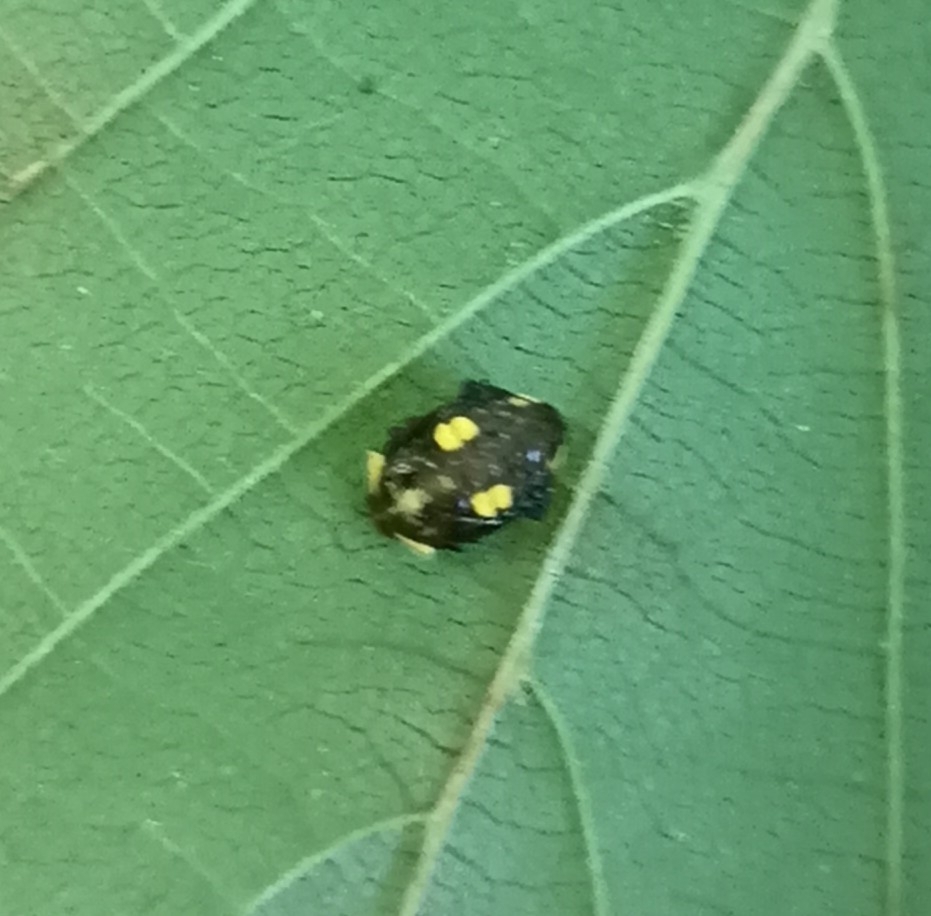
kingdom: Animalia
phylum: Arthropoda
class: Insecta
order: Coleoptera
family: Coccinellidae
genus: Halyzia
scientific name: Halyzia sedecimguttata
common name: Orange ladybird
